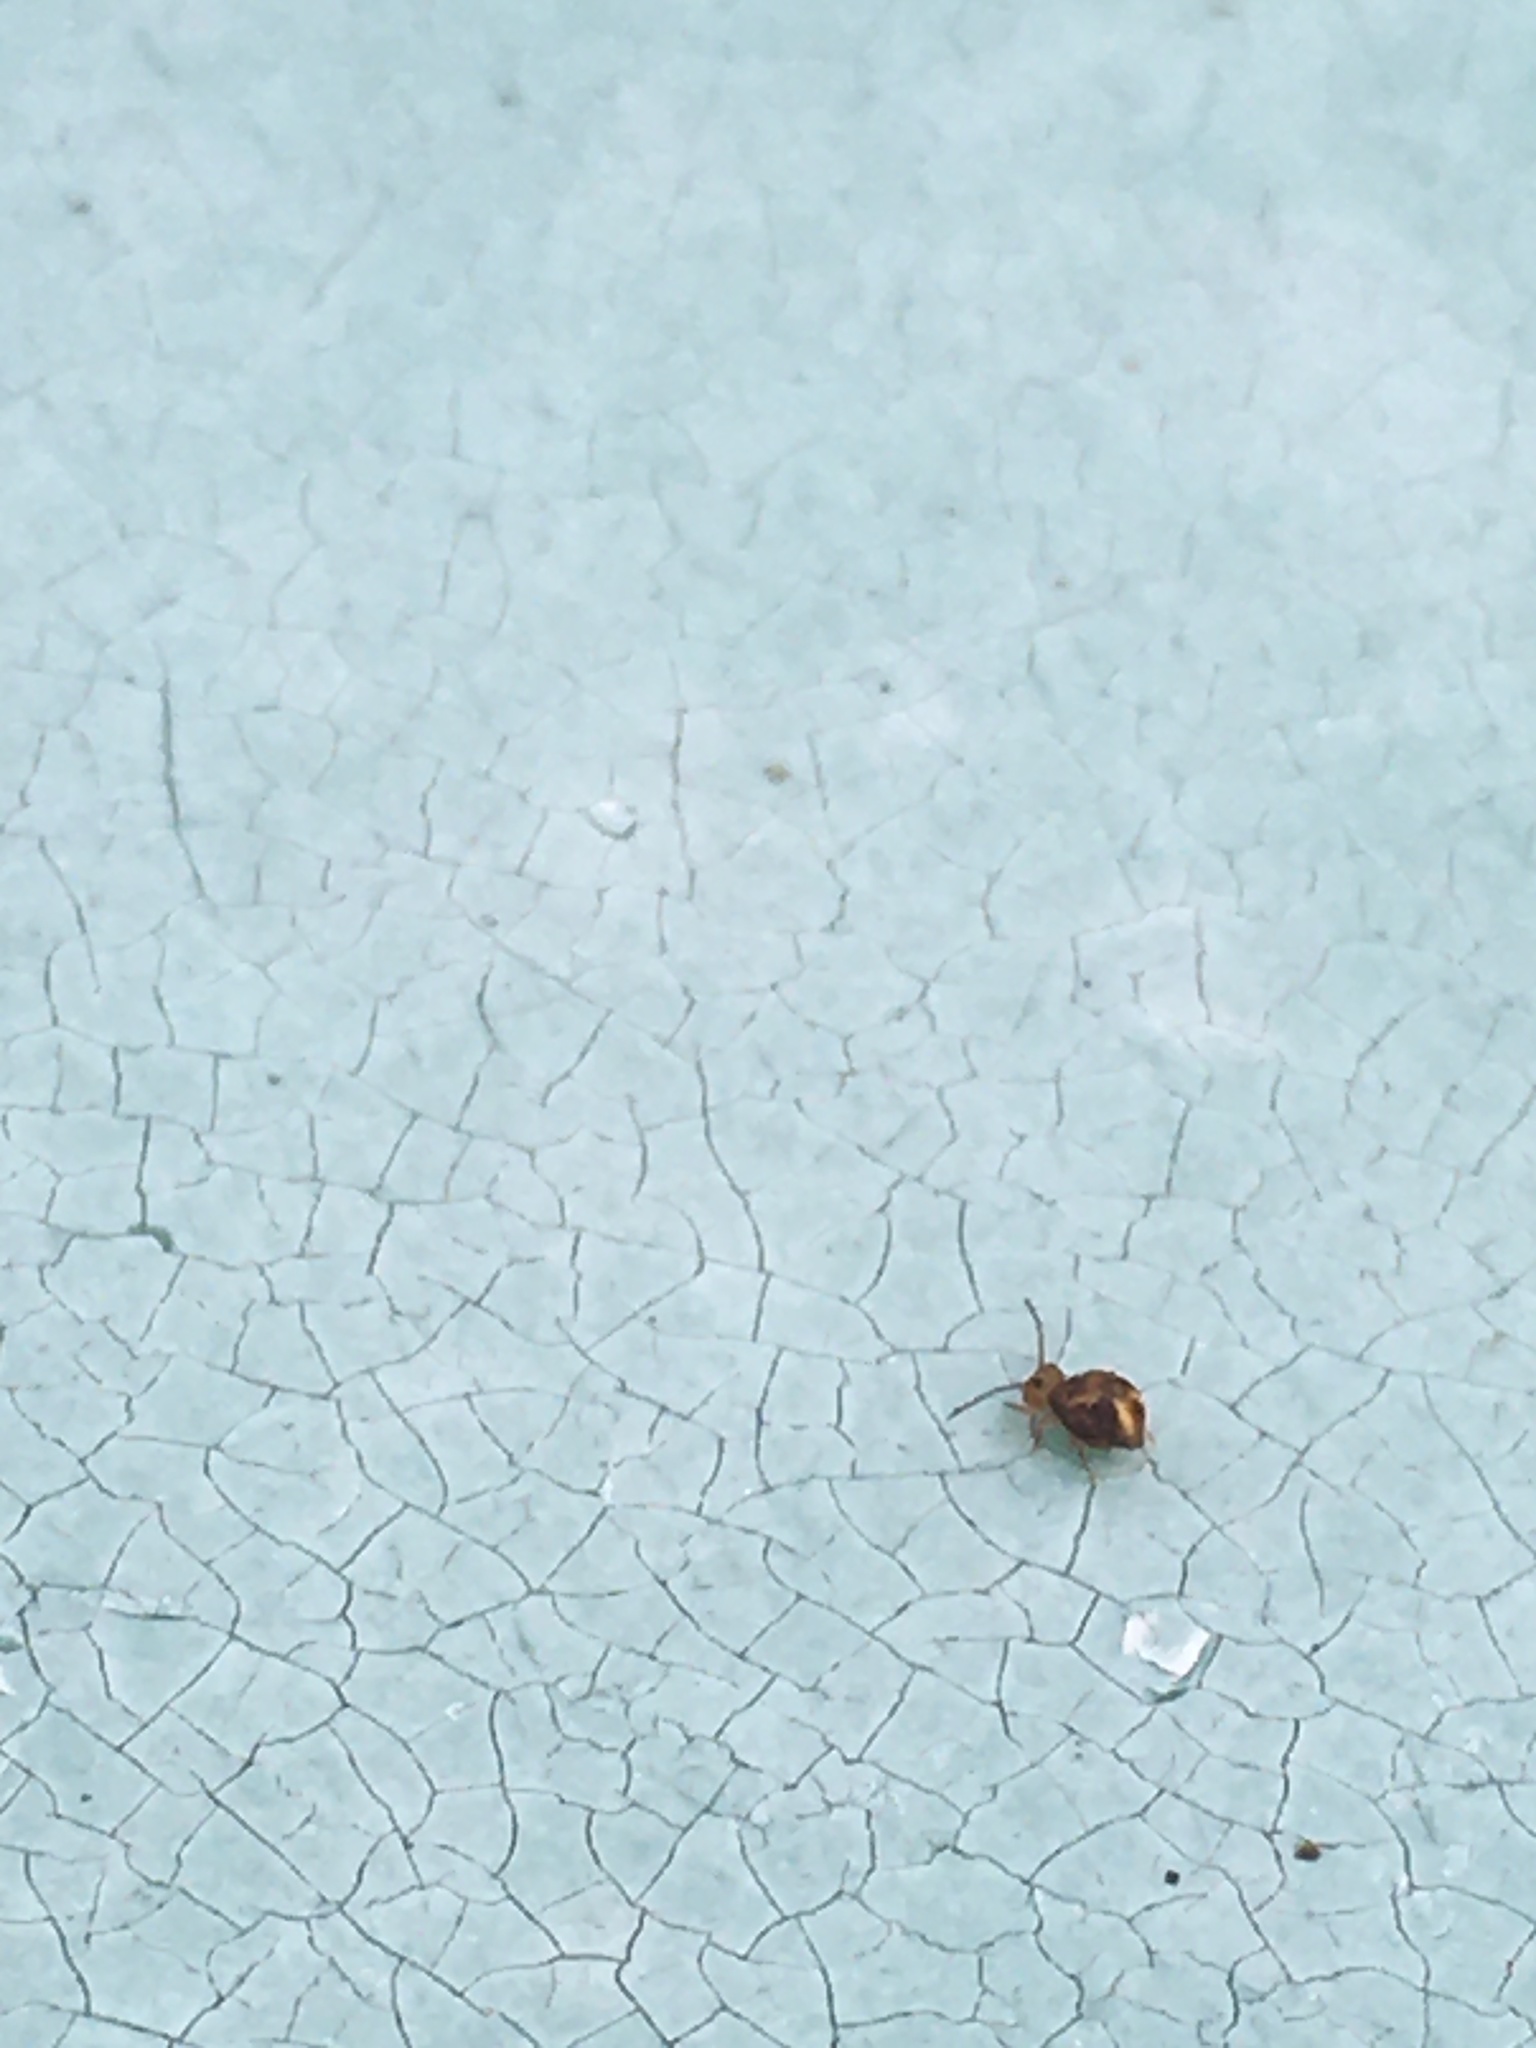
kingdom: Animalia
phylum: Arthropoda
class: Collembola
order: Symphypleona
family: Dicyrtomidae
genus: Dicyrtomina
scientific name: Dicyrtomina ornata
